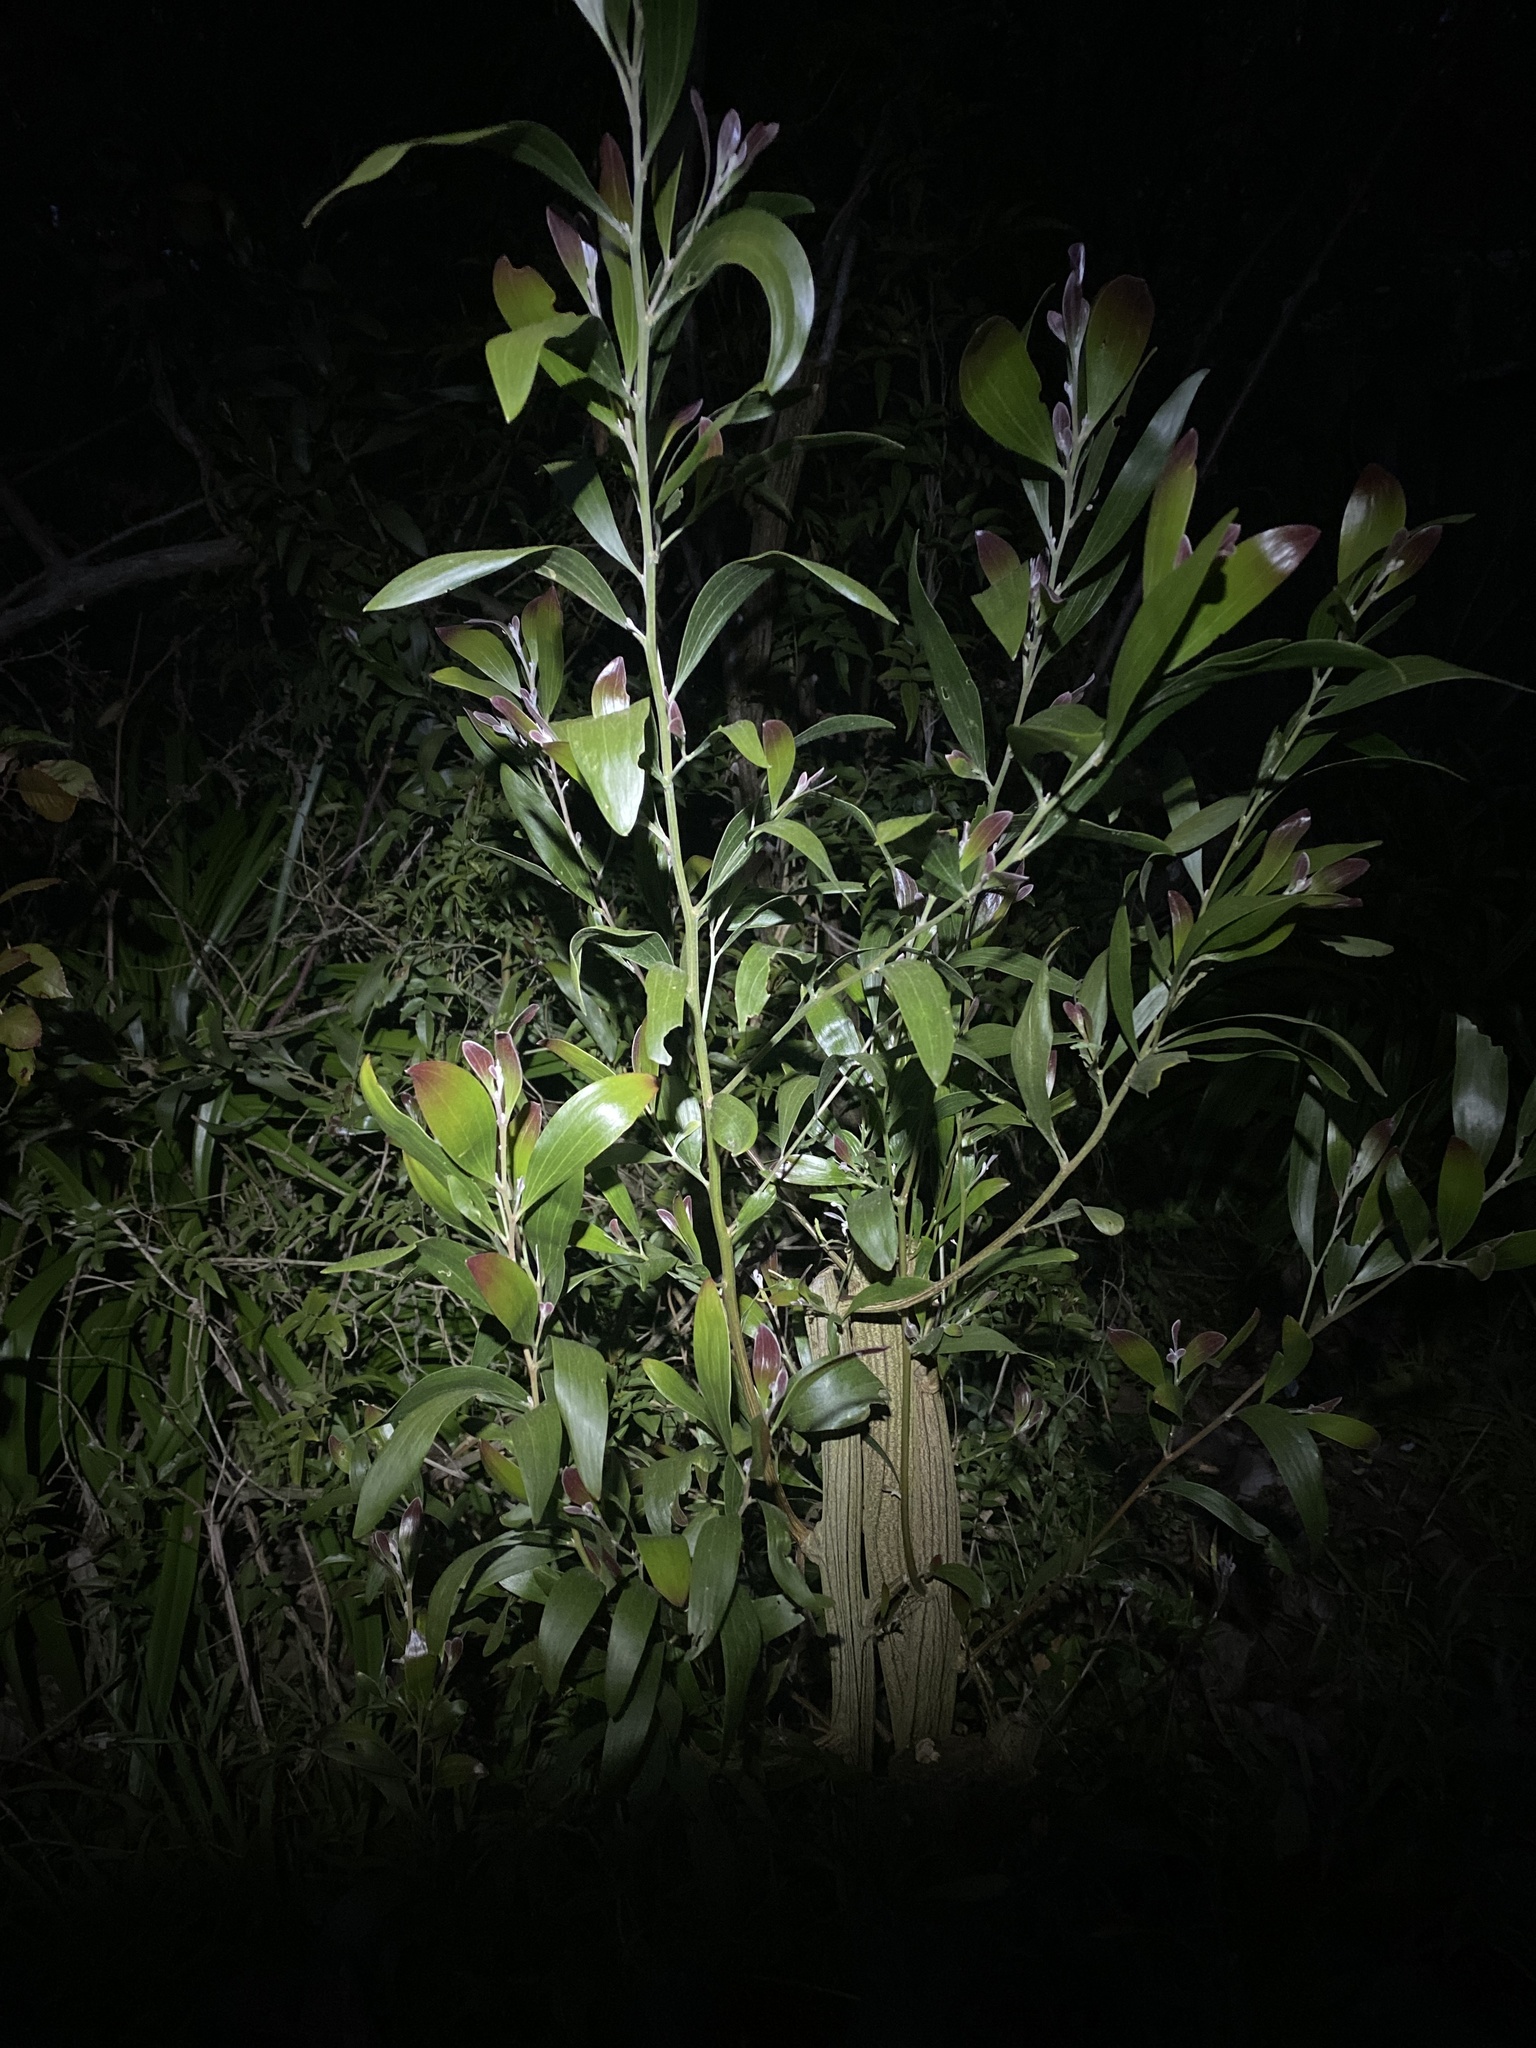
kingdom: Plantae
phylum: Tracheophyta
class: Magnoliopsida
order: Fabales
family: Fabaceae
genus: Acacia
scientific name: Acacia melanoxylon
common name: Blackwood
